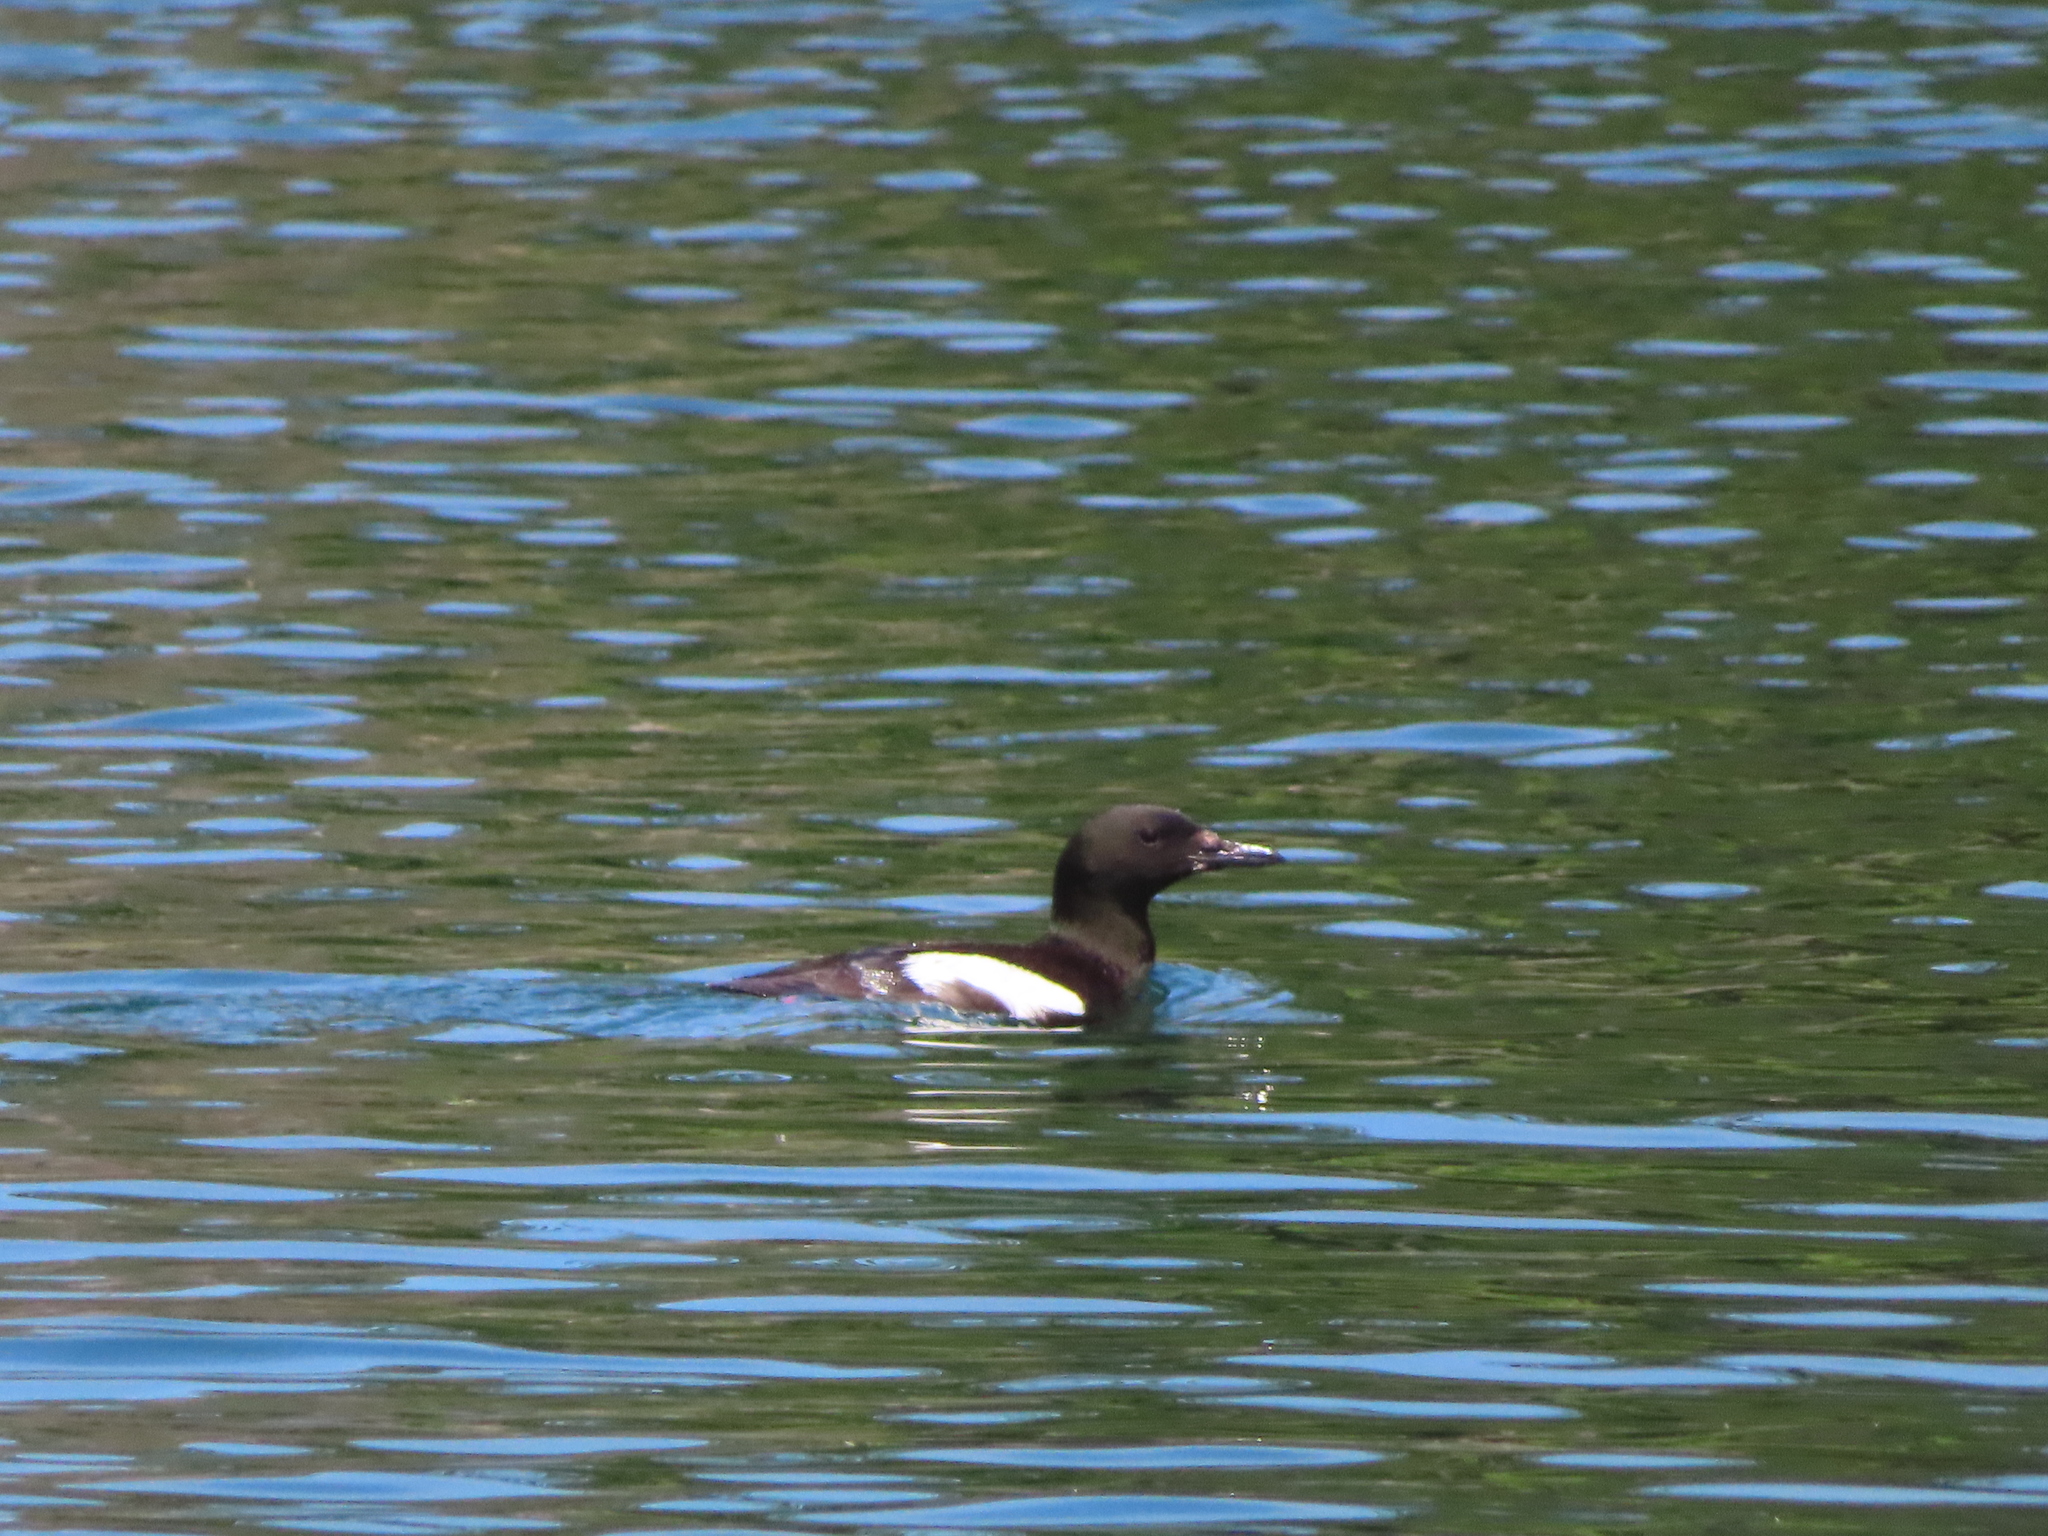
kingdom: Animalia
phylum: Chordata
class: Aves
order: Charadriiformes
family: Alcidae
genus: Cepphus
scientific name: Cepphus grylle
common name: Black guillemot
